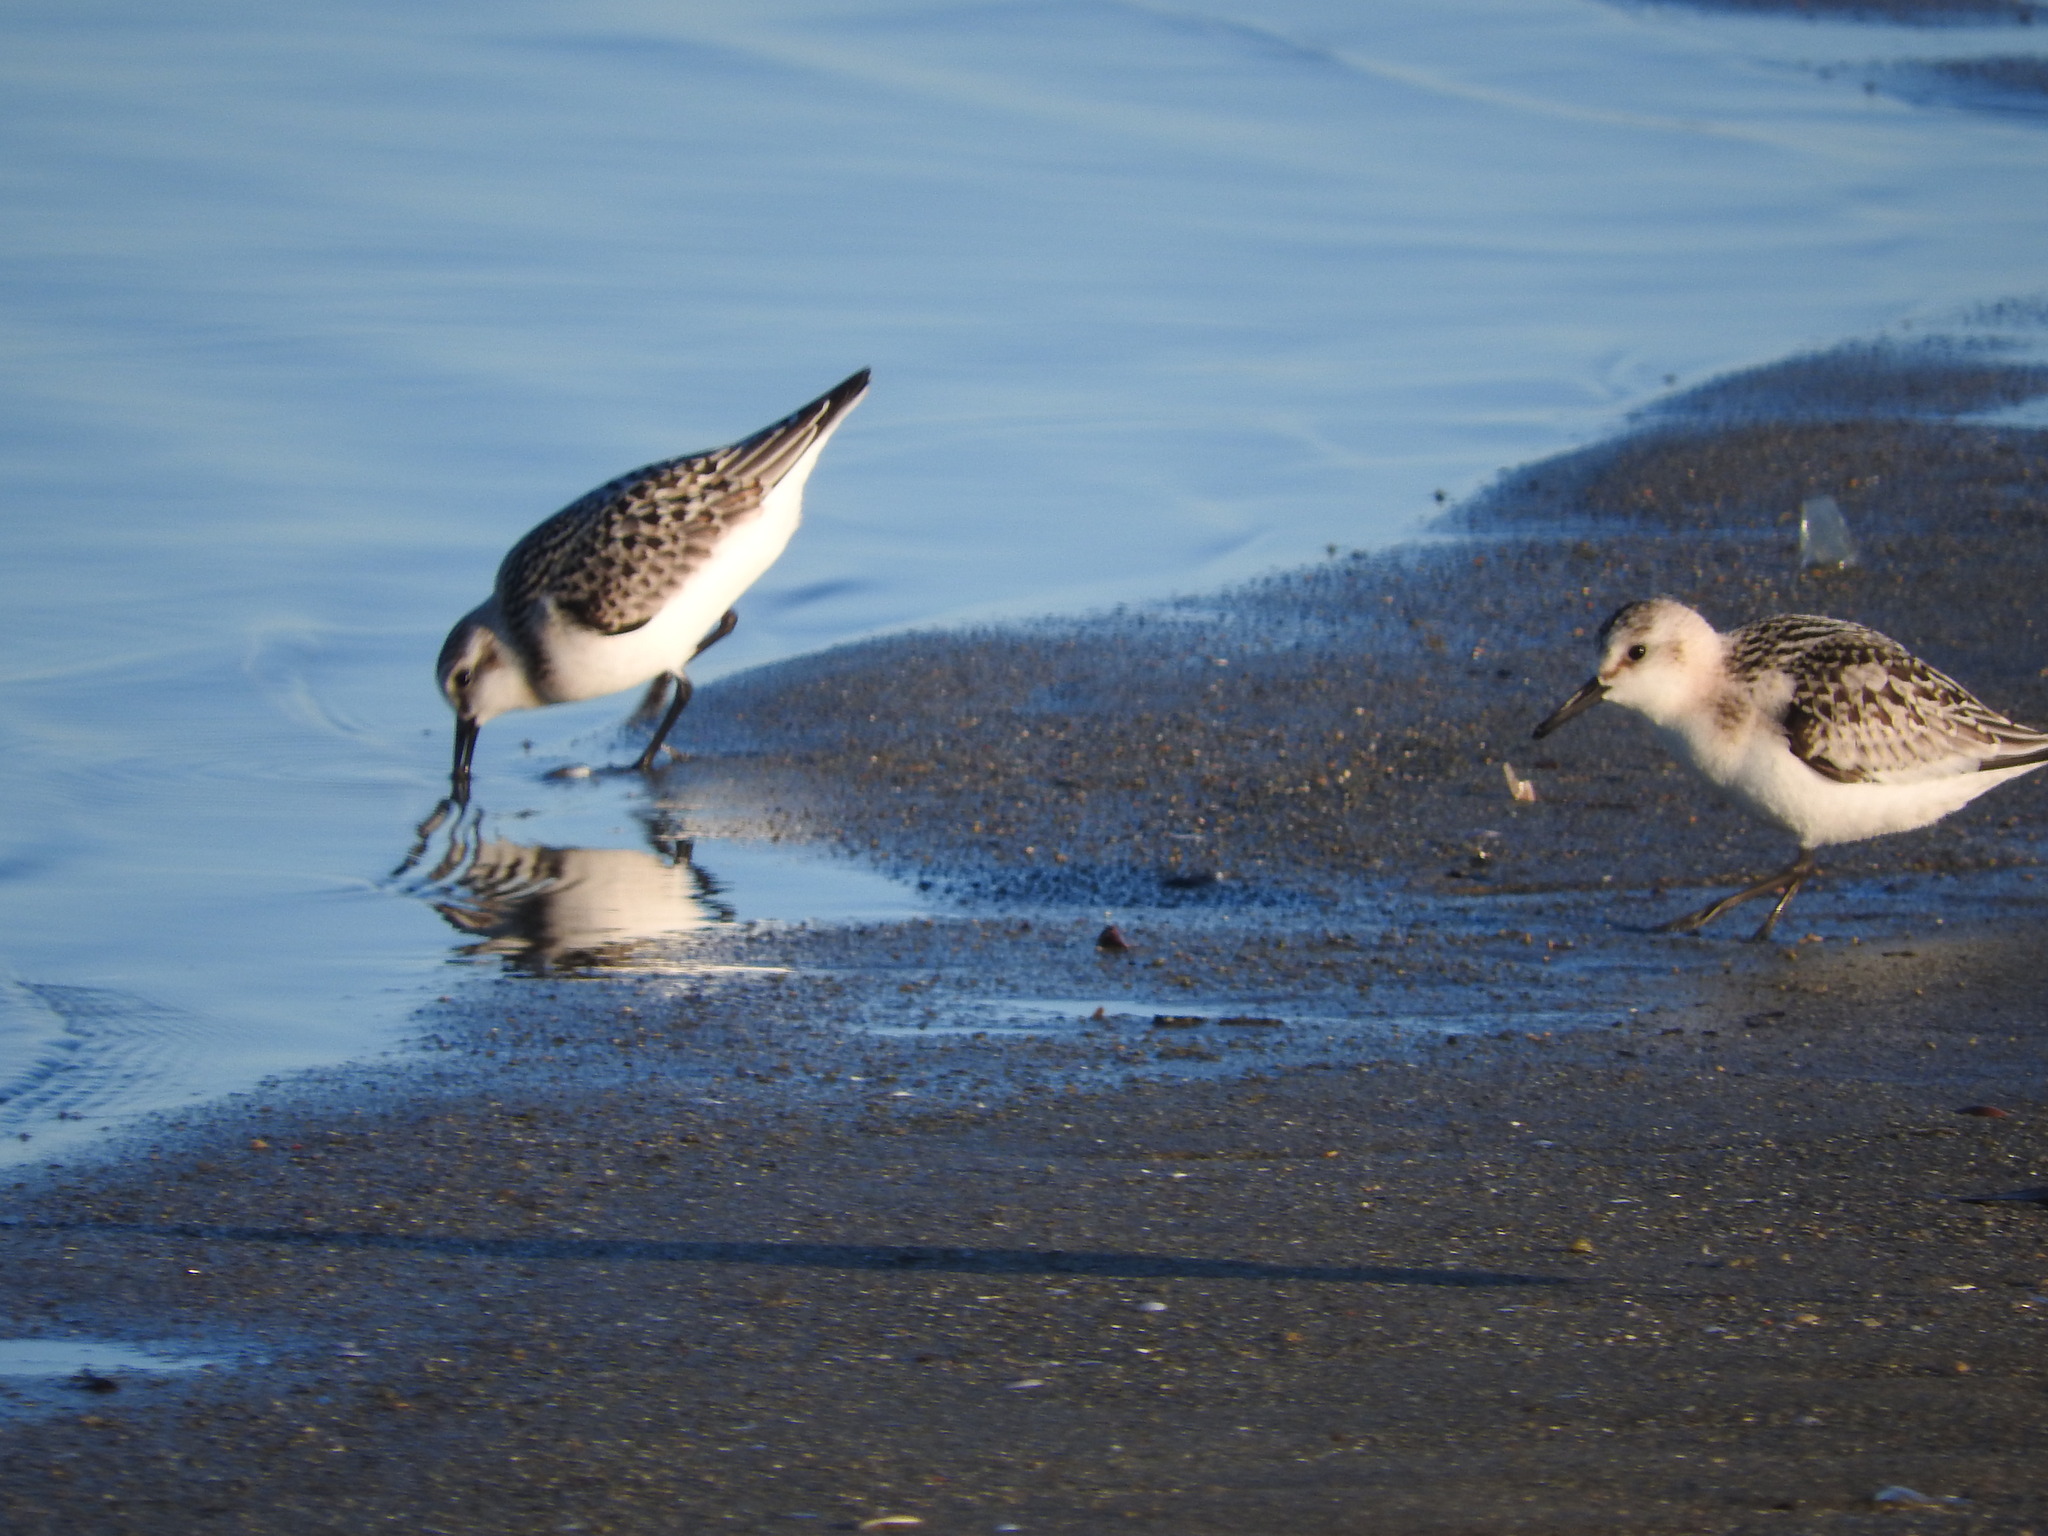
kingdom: Animalia
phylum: Chordata
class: Aves
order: Charadriiformes
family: Scolopacidae
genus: Calidris
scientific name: Calidris alba
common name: Sanderling
